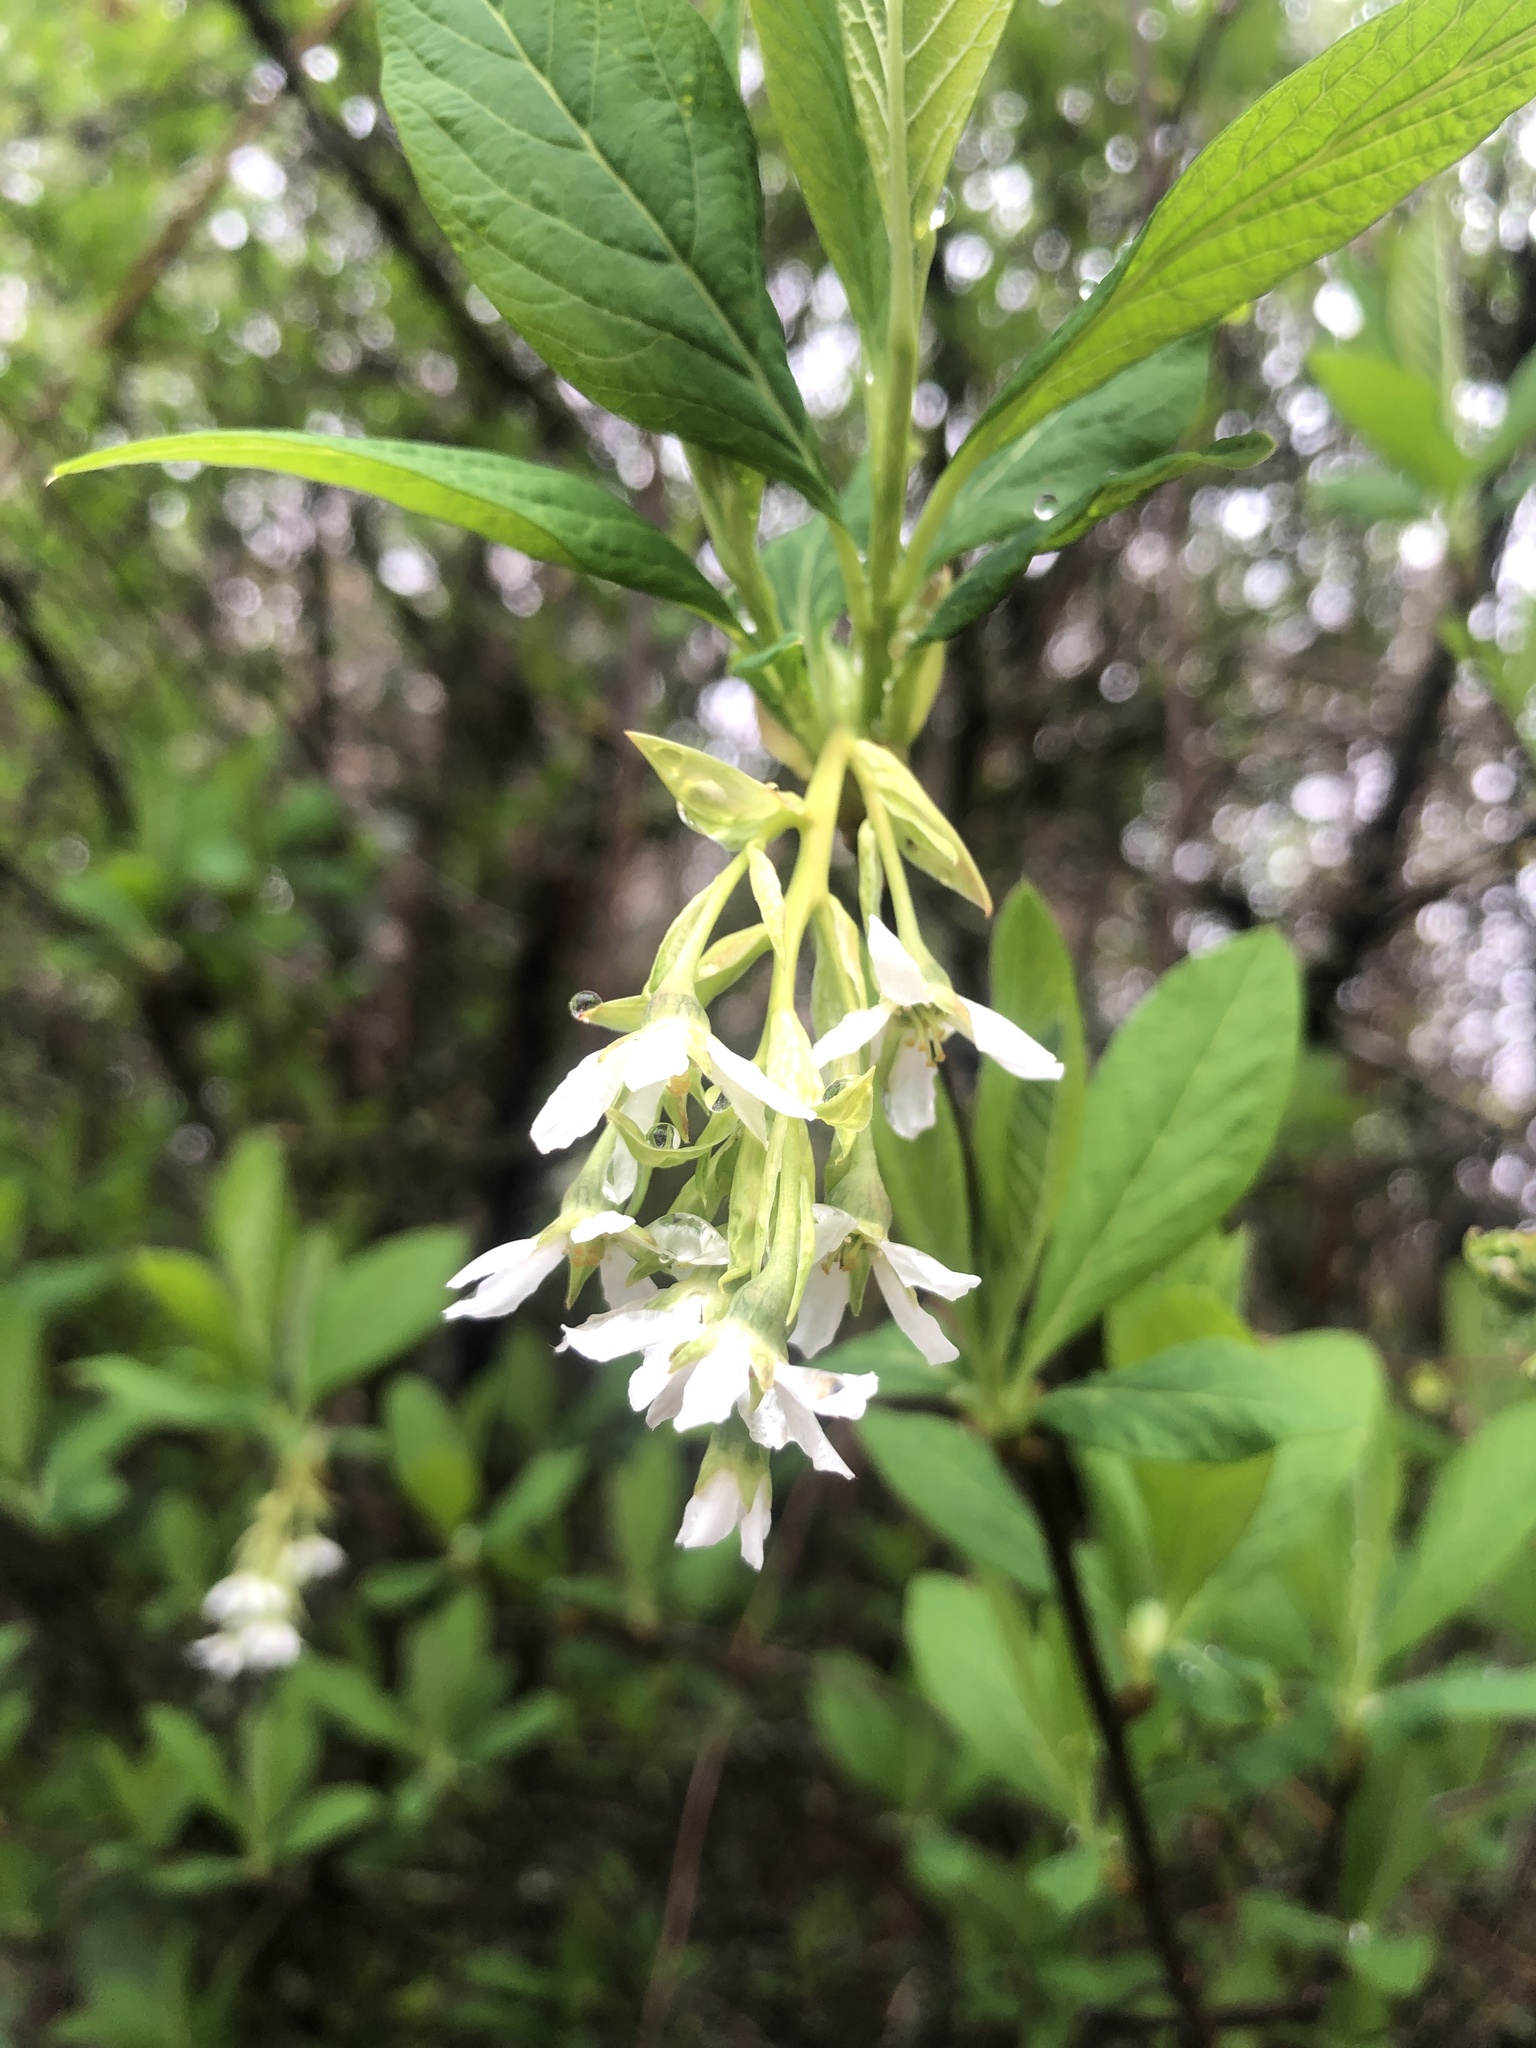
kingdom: Plantae
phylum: Tracheophyta
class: Magnoliopsida
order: Rosales
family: Rosaceae
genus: Oemleria
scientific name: Oemleria cerasiformis
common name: Osoberry
